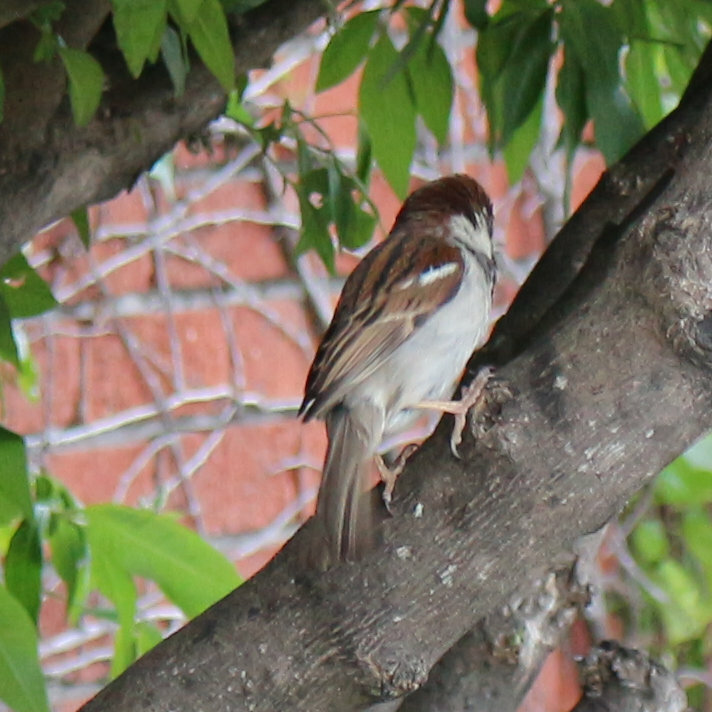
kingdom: Animalia
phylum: Chordata
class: Aves
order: Passeriformes
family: Passeridae
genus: Passer
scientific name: Passer domesticus
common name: House sparrow
